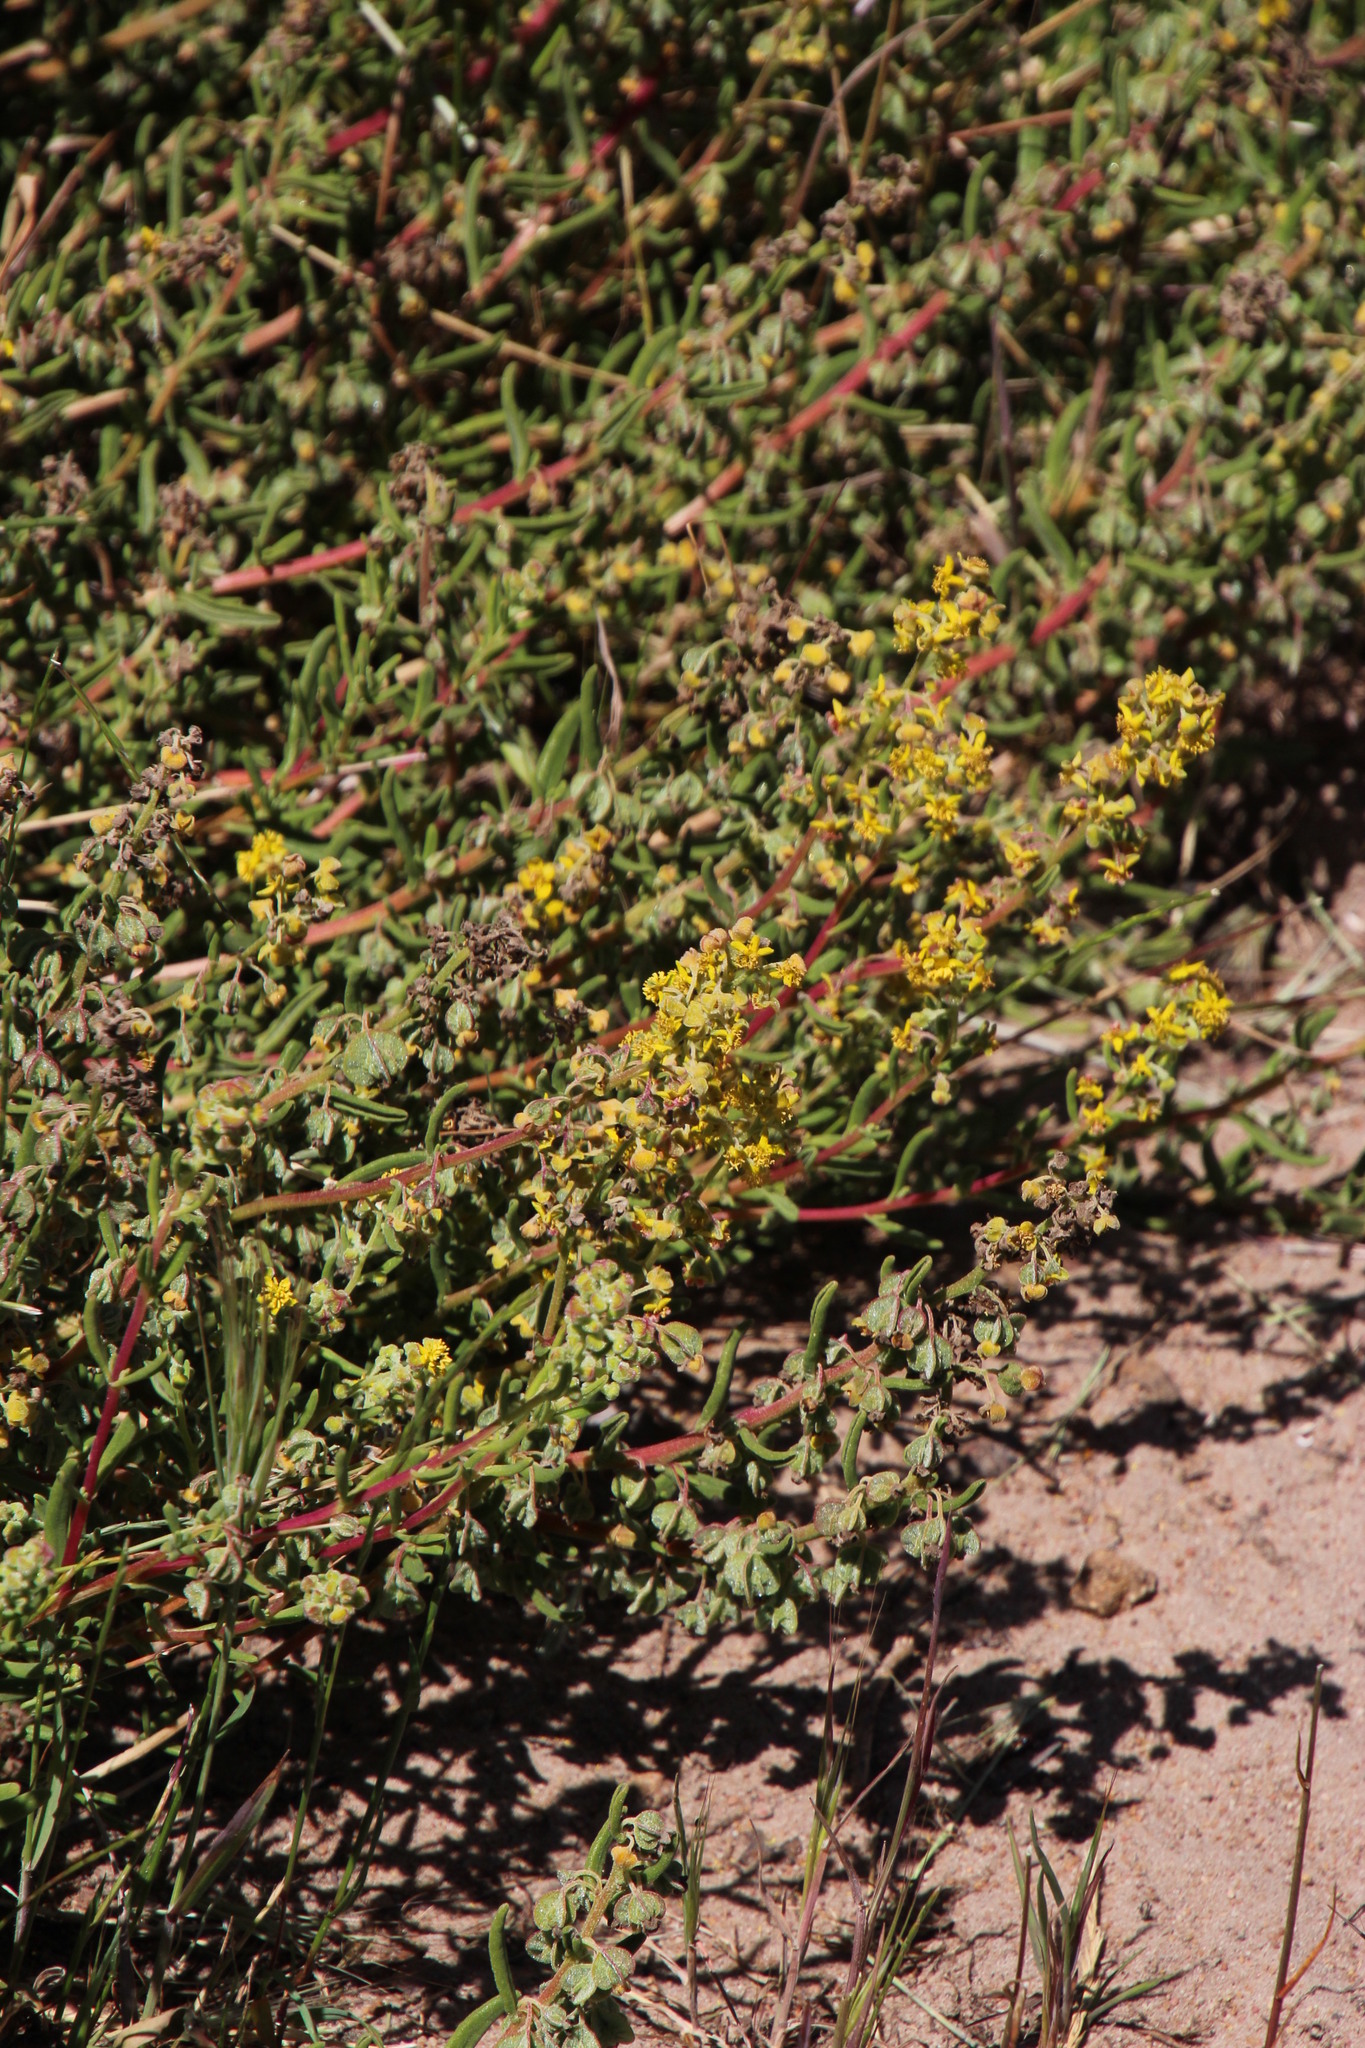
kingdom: Plantae
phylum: Tracheophyta
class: Magnoliopsida
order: Caryophyllales
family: Aizoaceae
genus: Tetragonia
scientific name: Tetragonia fruticosa
